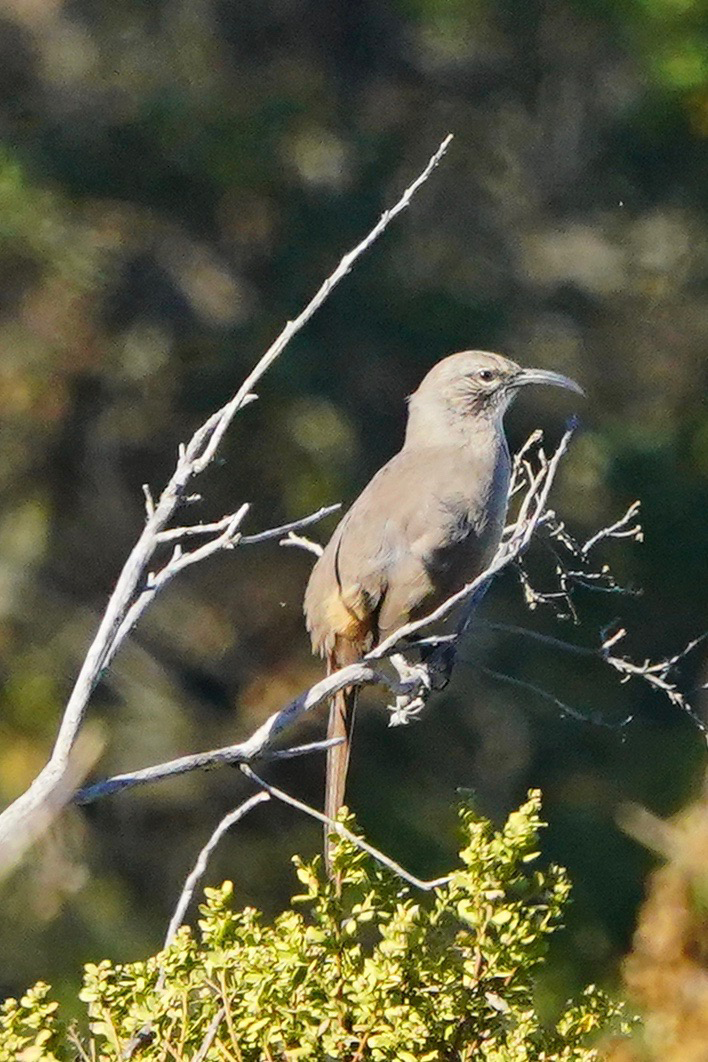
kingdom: Animalia
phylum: Chordata
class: Aves
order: Passeriformes
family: Mimidae
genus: Toxostoma
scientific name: Toxostoma redivivum
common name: California thrasher
